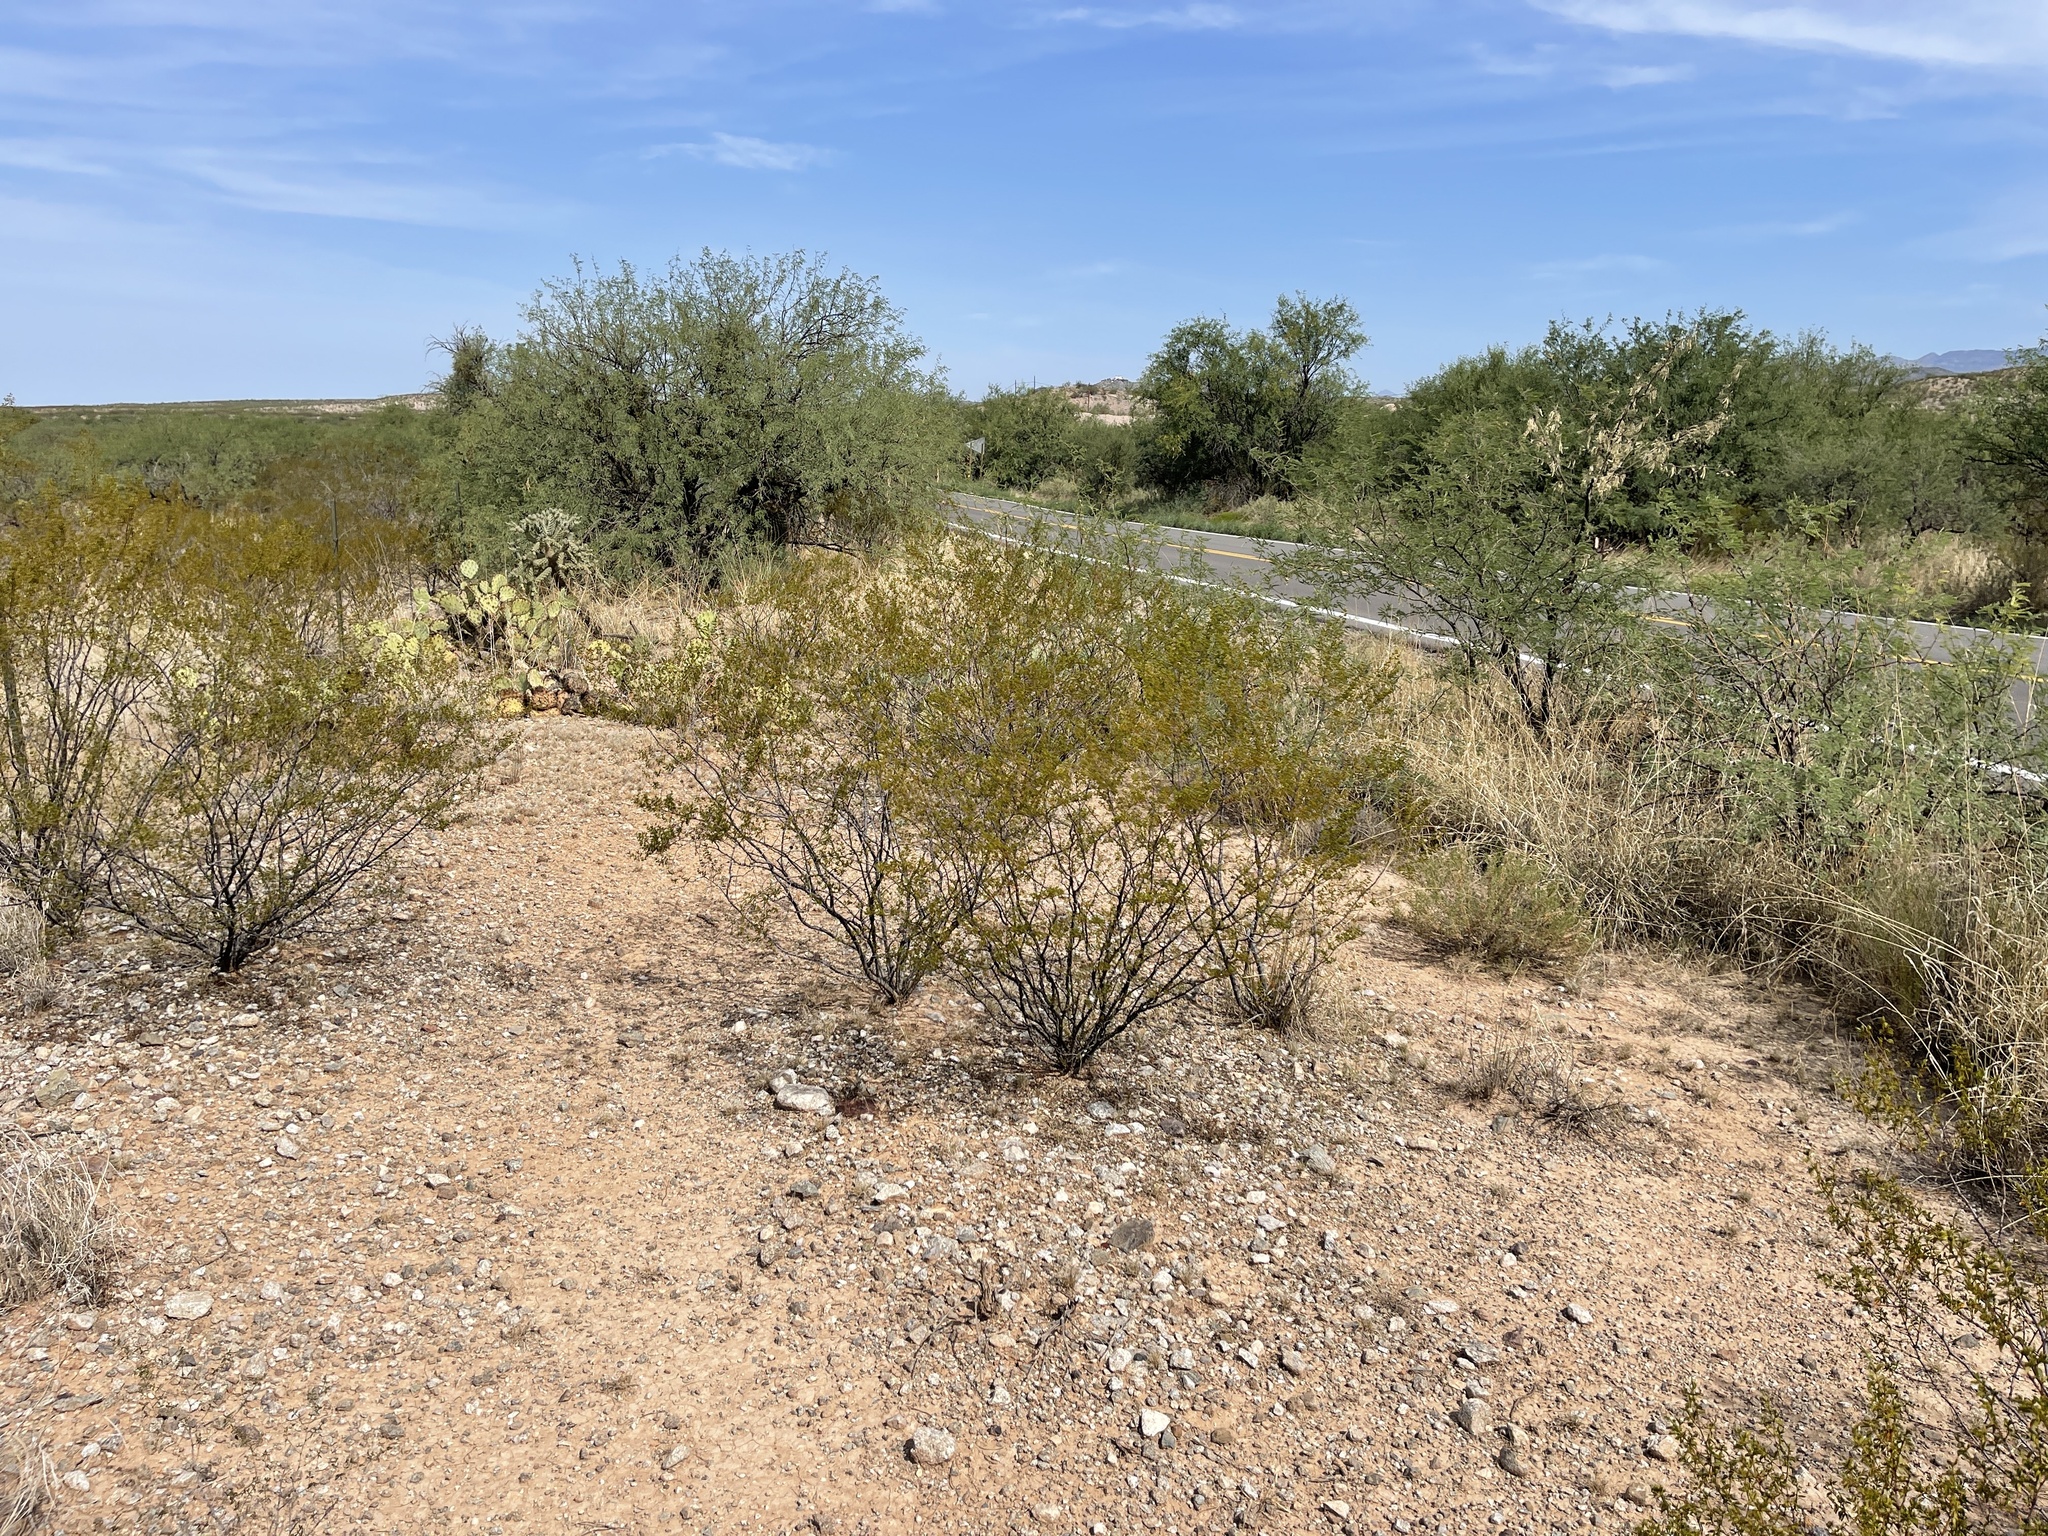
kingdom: Plantae
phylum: Tracheophyta
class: Magnoliopsida
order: Zygophyllales
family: Zygophyllaceae
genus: Larrea
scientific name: Larrea tridentata
